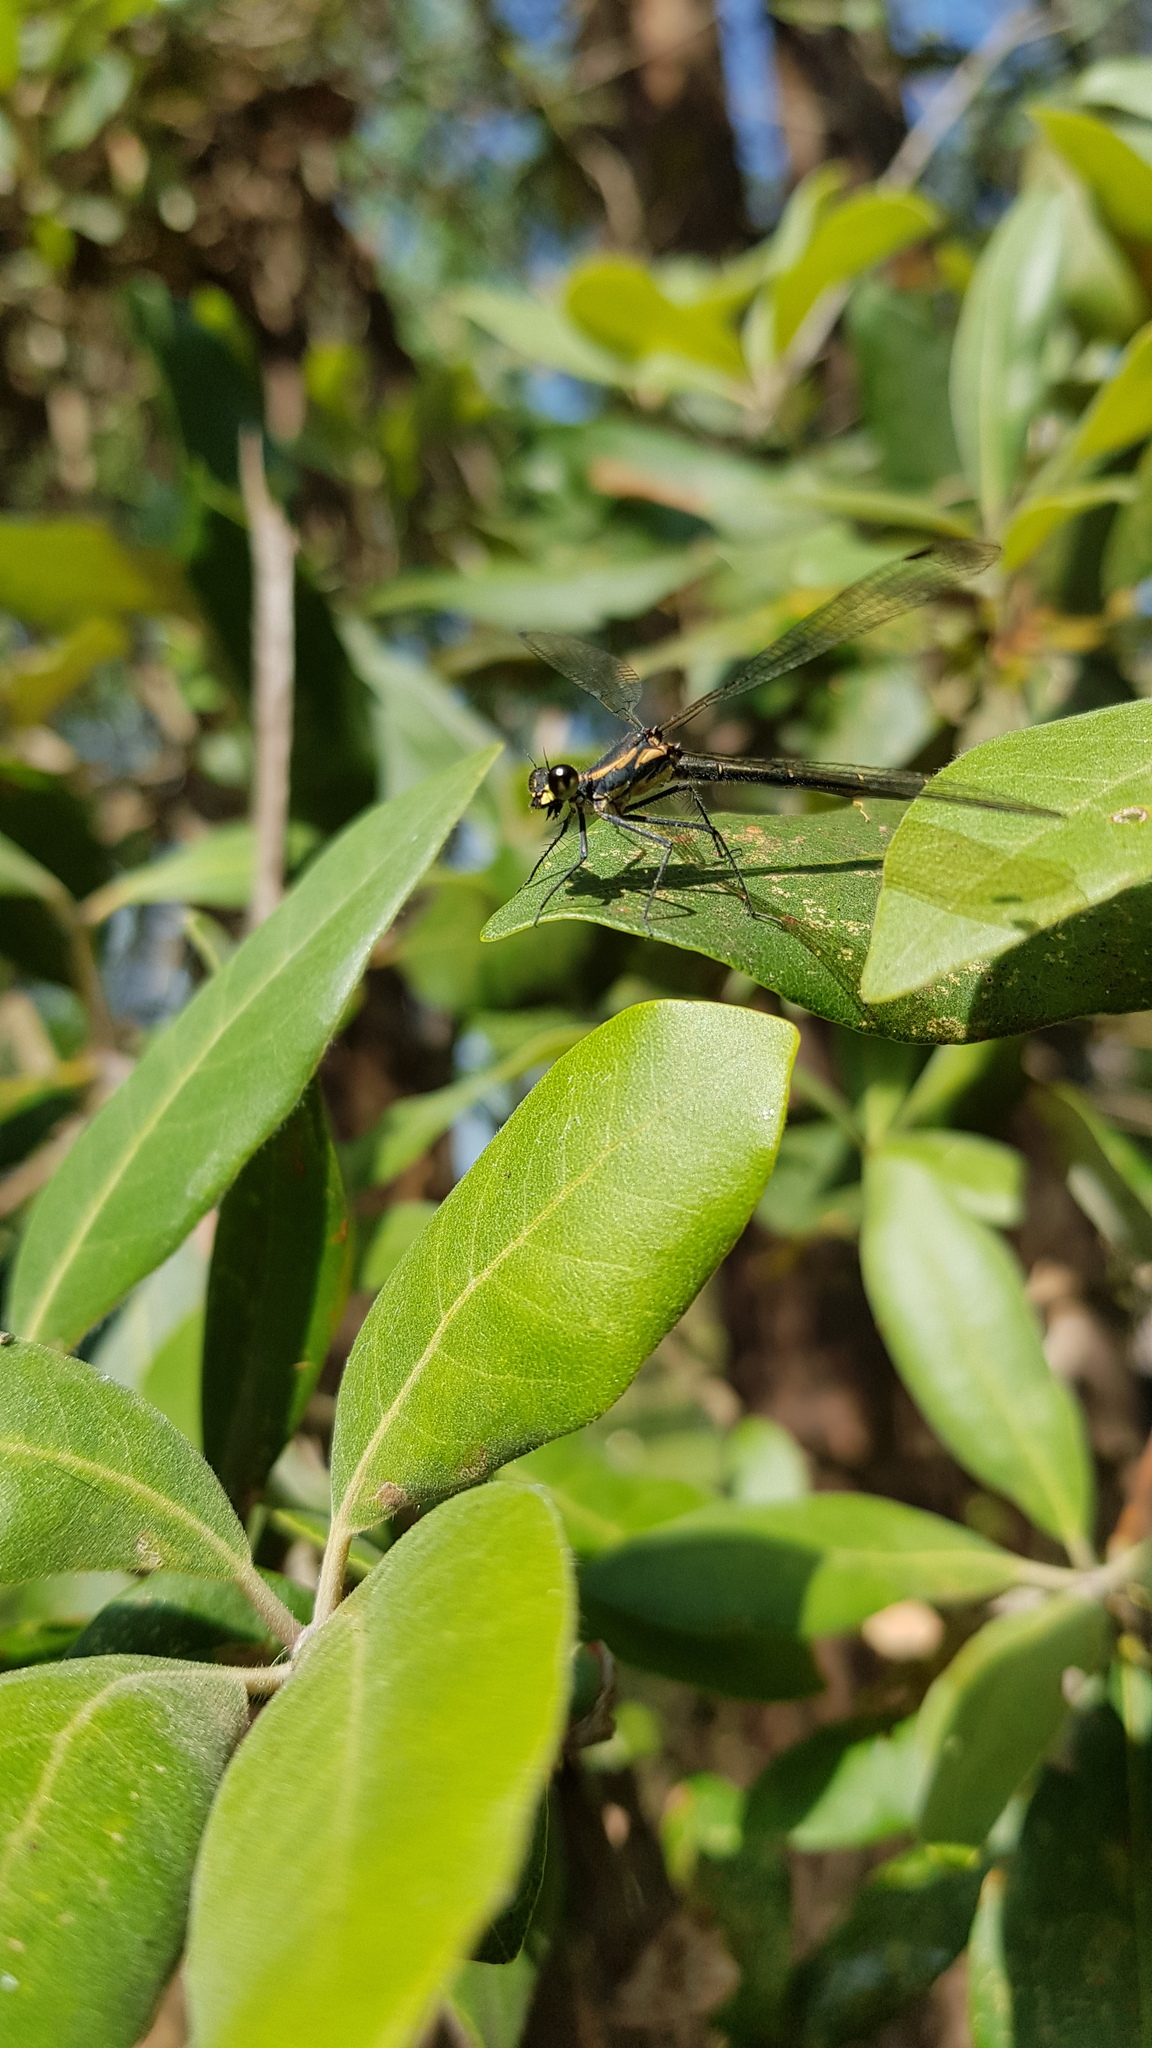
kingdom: Animalia
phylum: Arthropoda
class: Insecta
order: Odonata
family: Argiolestidae
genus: Austroargiolestes
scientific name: Austroargiolestes icteromelas
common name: Common flatwing
